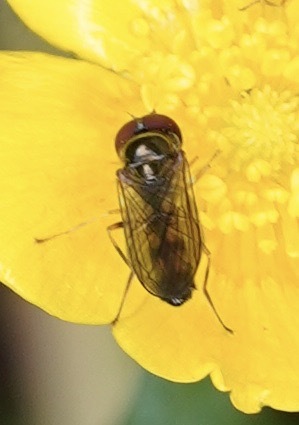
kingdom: Animalia
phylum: Arthropoda
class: Insecta
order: Diptera
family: Syrphidae
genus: Melanostoma
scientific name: Melanostoma mellina
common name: Hover fly
